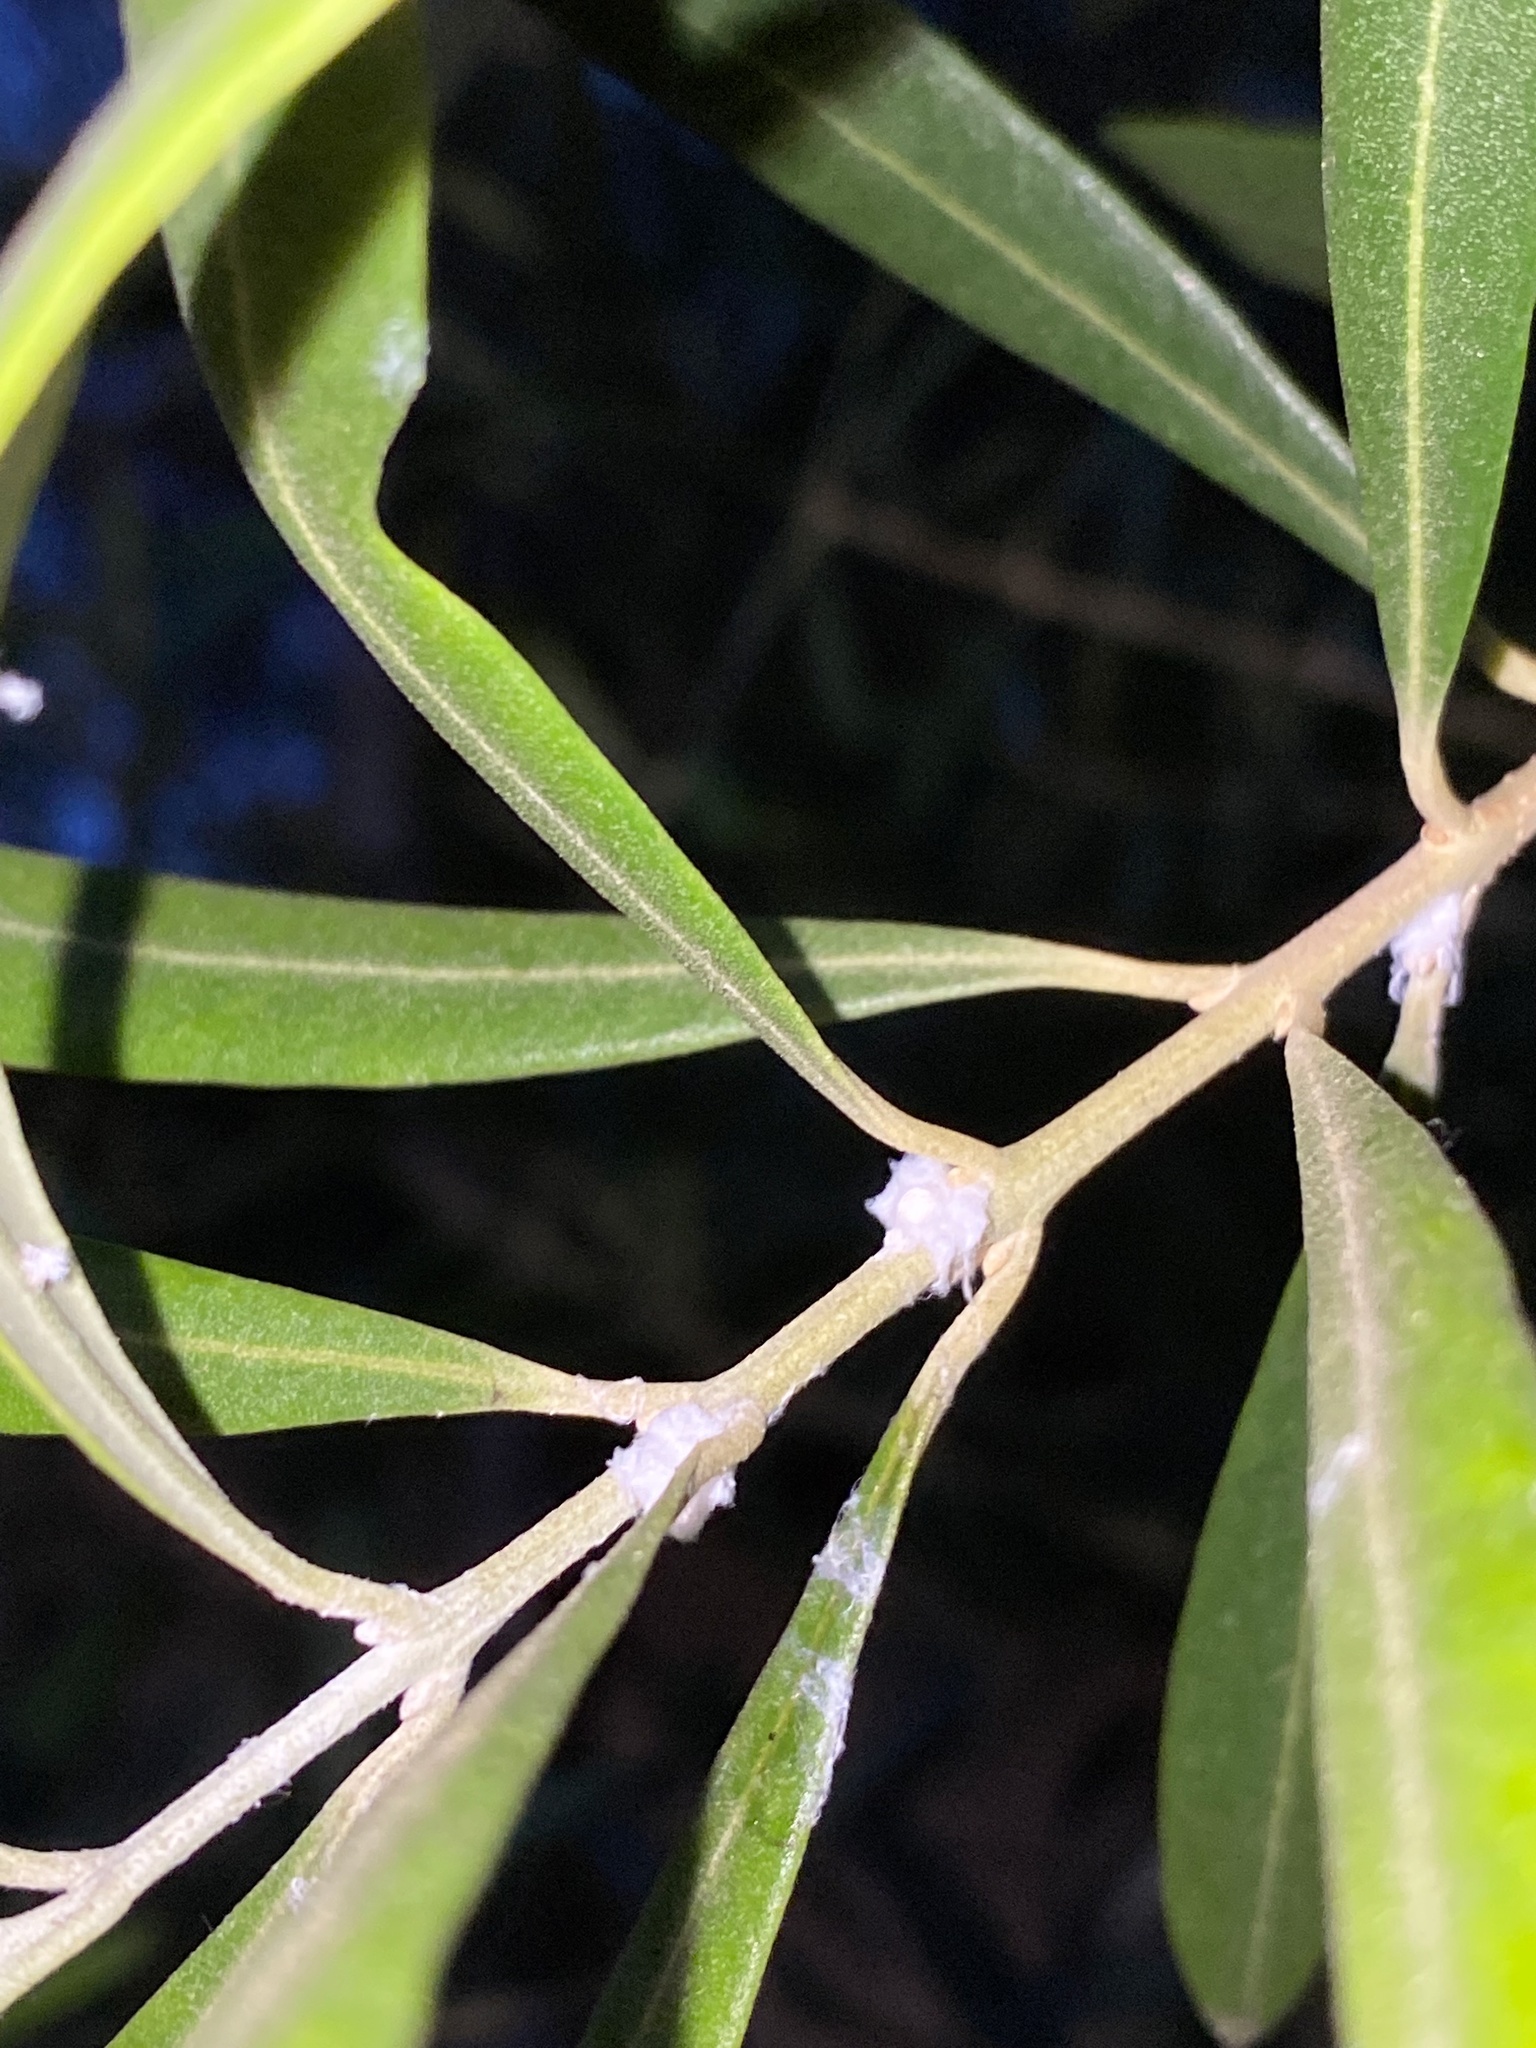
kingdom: Animalia
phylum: Arthropoda
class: Insecta
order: Hemiptera
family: Liviidae
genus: Euphyllura
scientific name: Euphyllura olivina
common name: Olive psyllid
